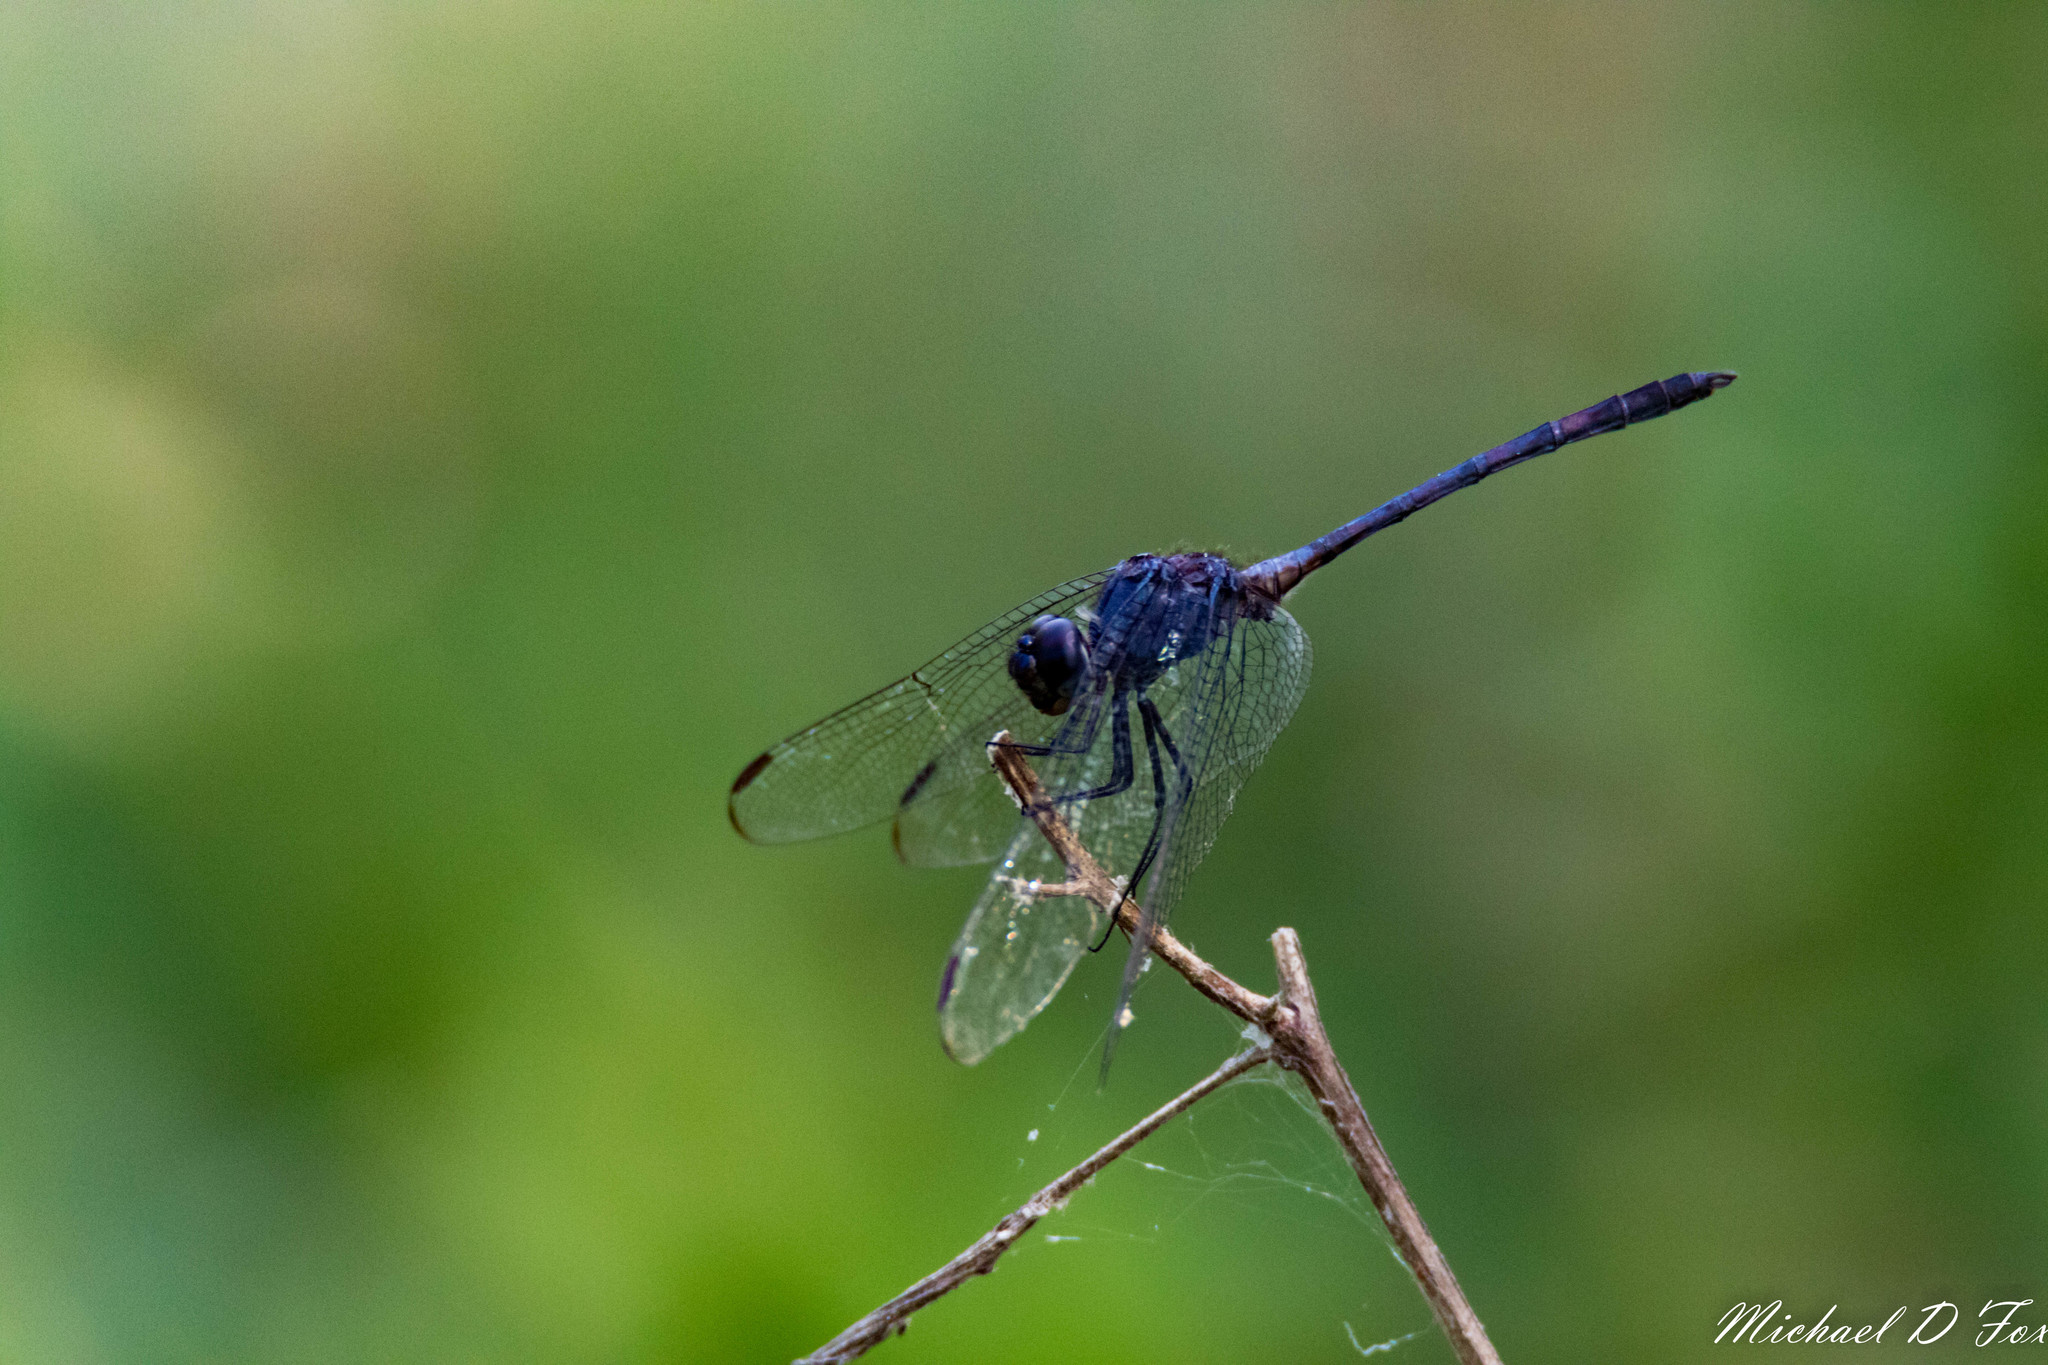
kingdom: Animalia
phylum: Arthropoda
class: Insecta
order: Odonata
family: Libellulidae
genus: Dythemis
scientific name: Dythemis nigrescens
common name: Black setwing
